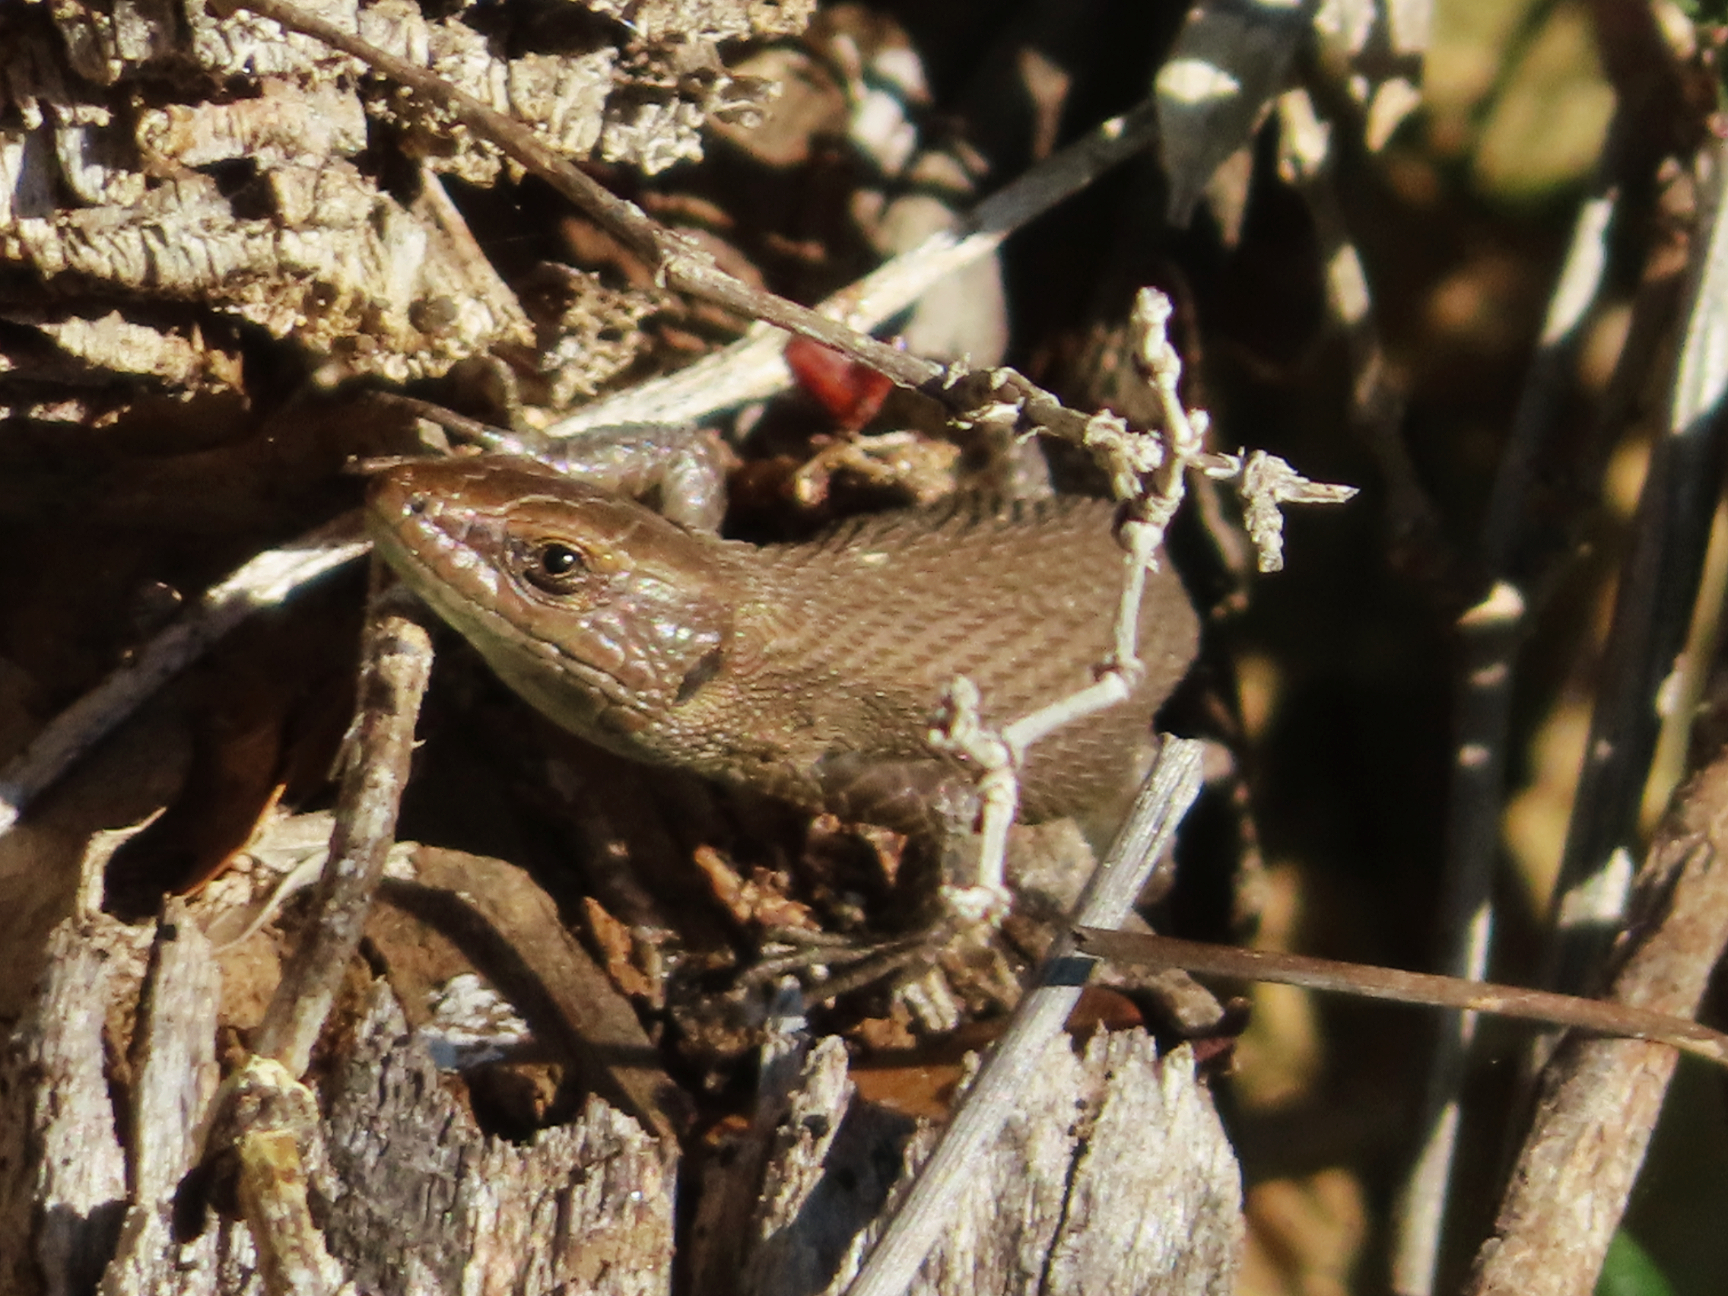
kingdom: Animalia
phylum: Chordata
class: Squamata
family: Lacertidae
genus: Algyroides
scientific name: Algyroides moreoticus
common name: Greek algyroides
